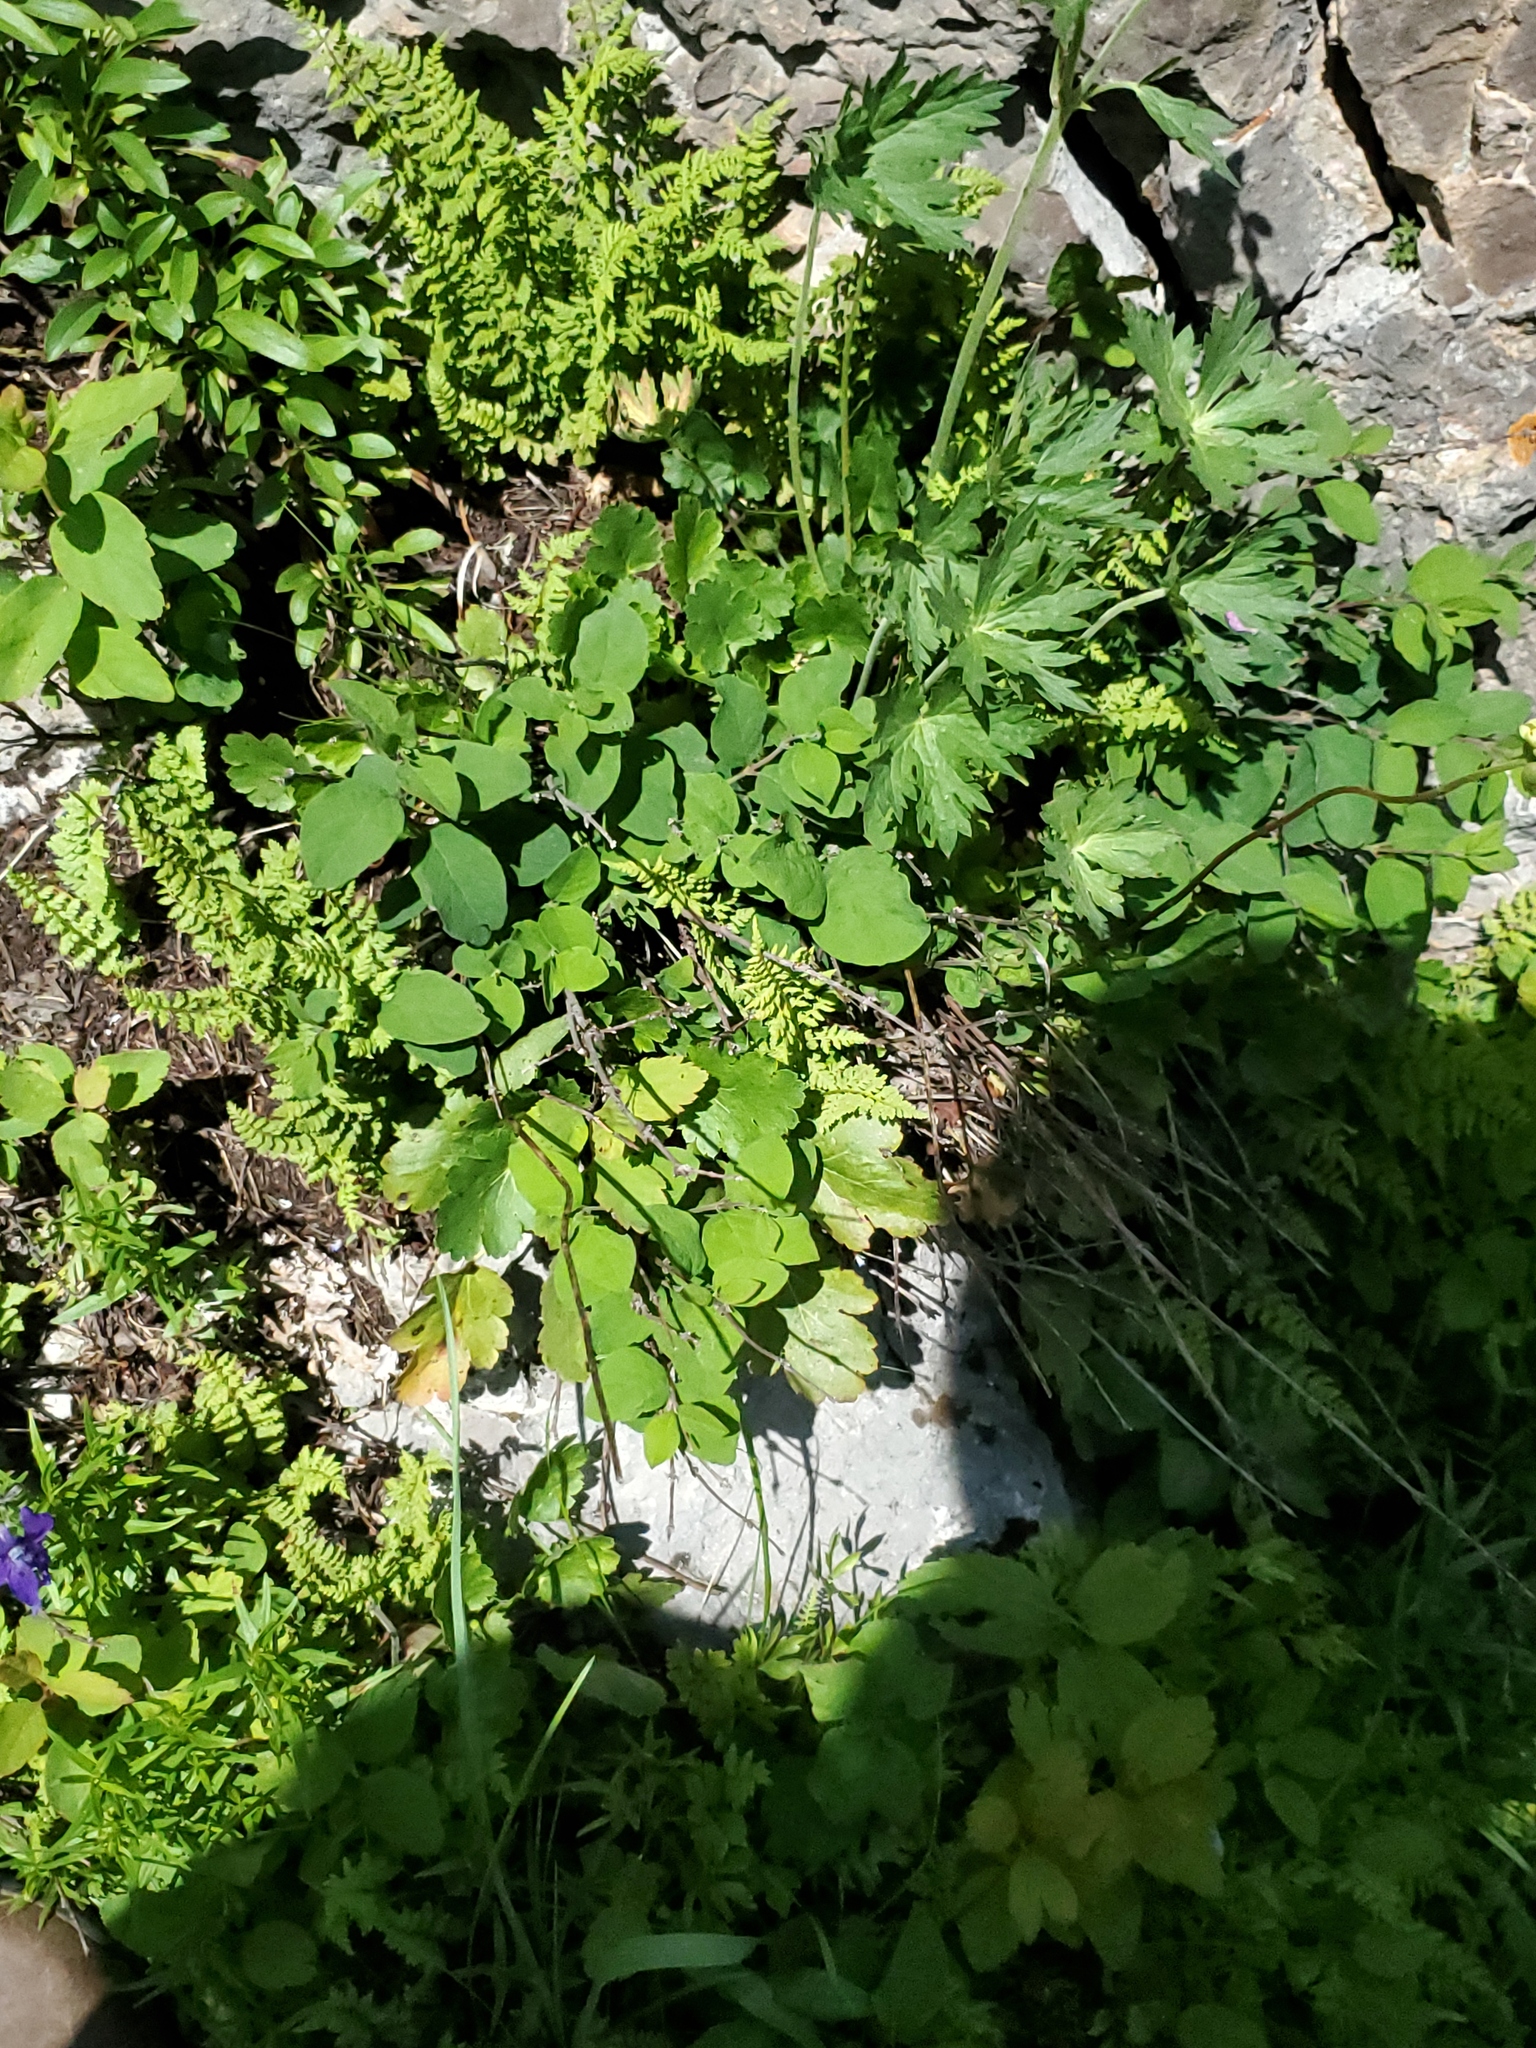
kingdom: Plantae
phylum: Tracheophyta
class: Magnoliopsida
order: Geraniales
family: Geraniaceae
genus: Geranium
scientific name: Geranium viscosissimum
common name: Purple geranium
